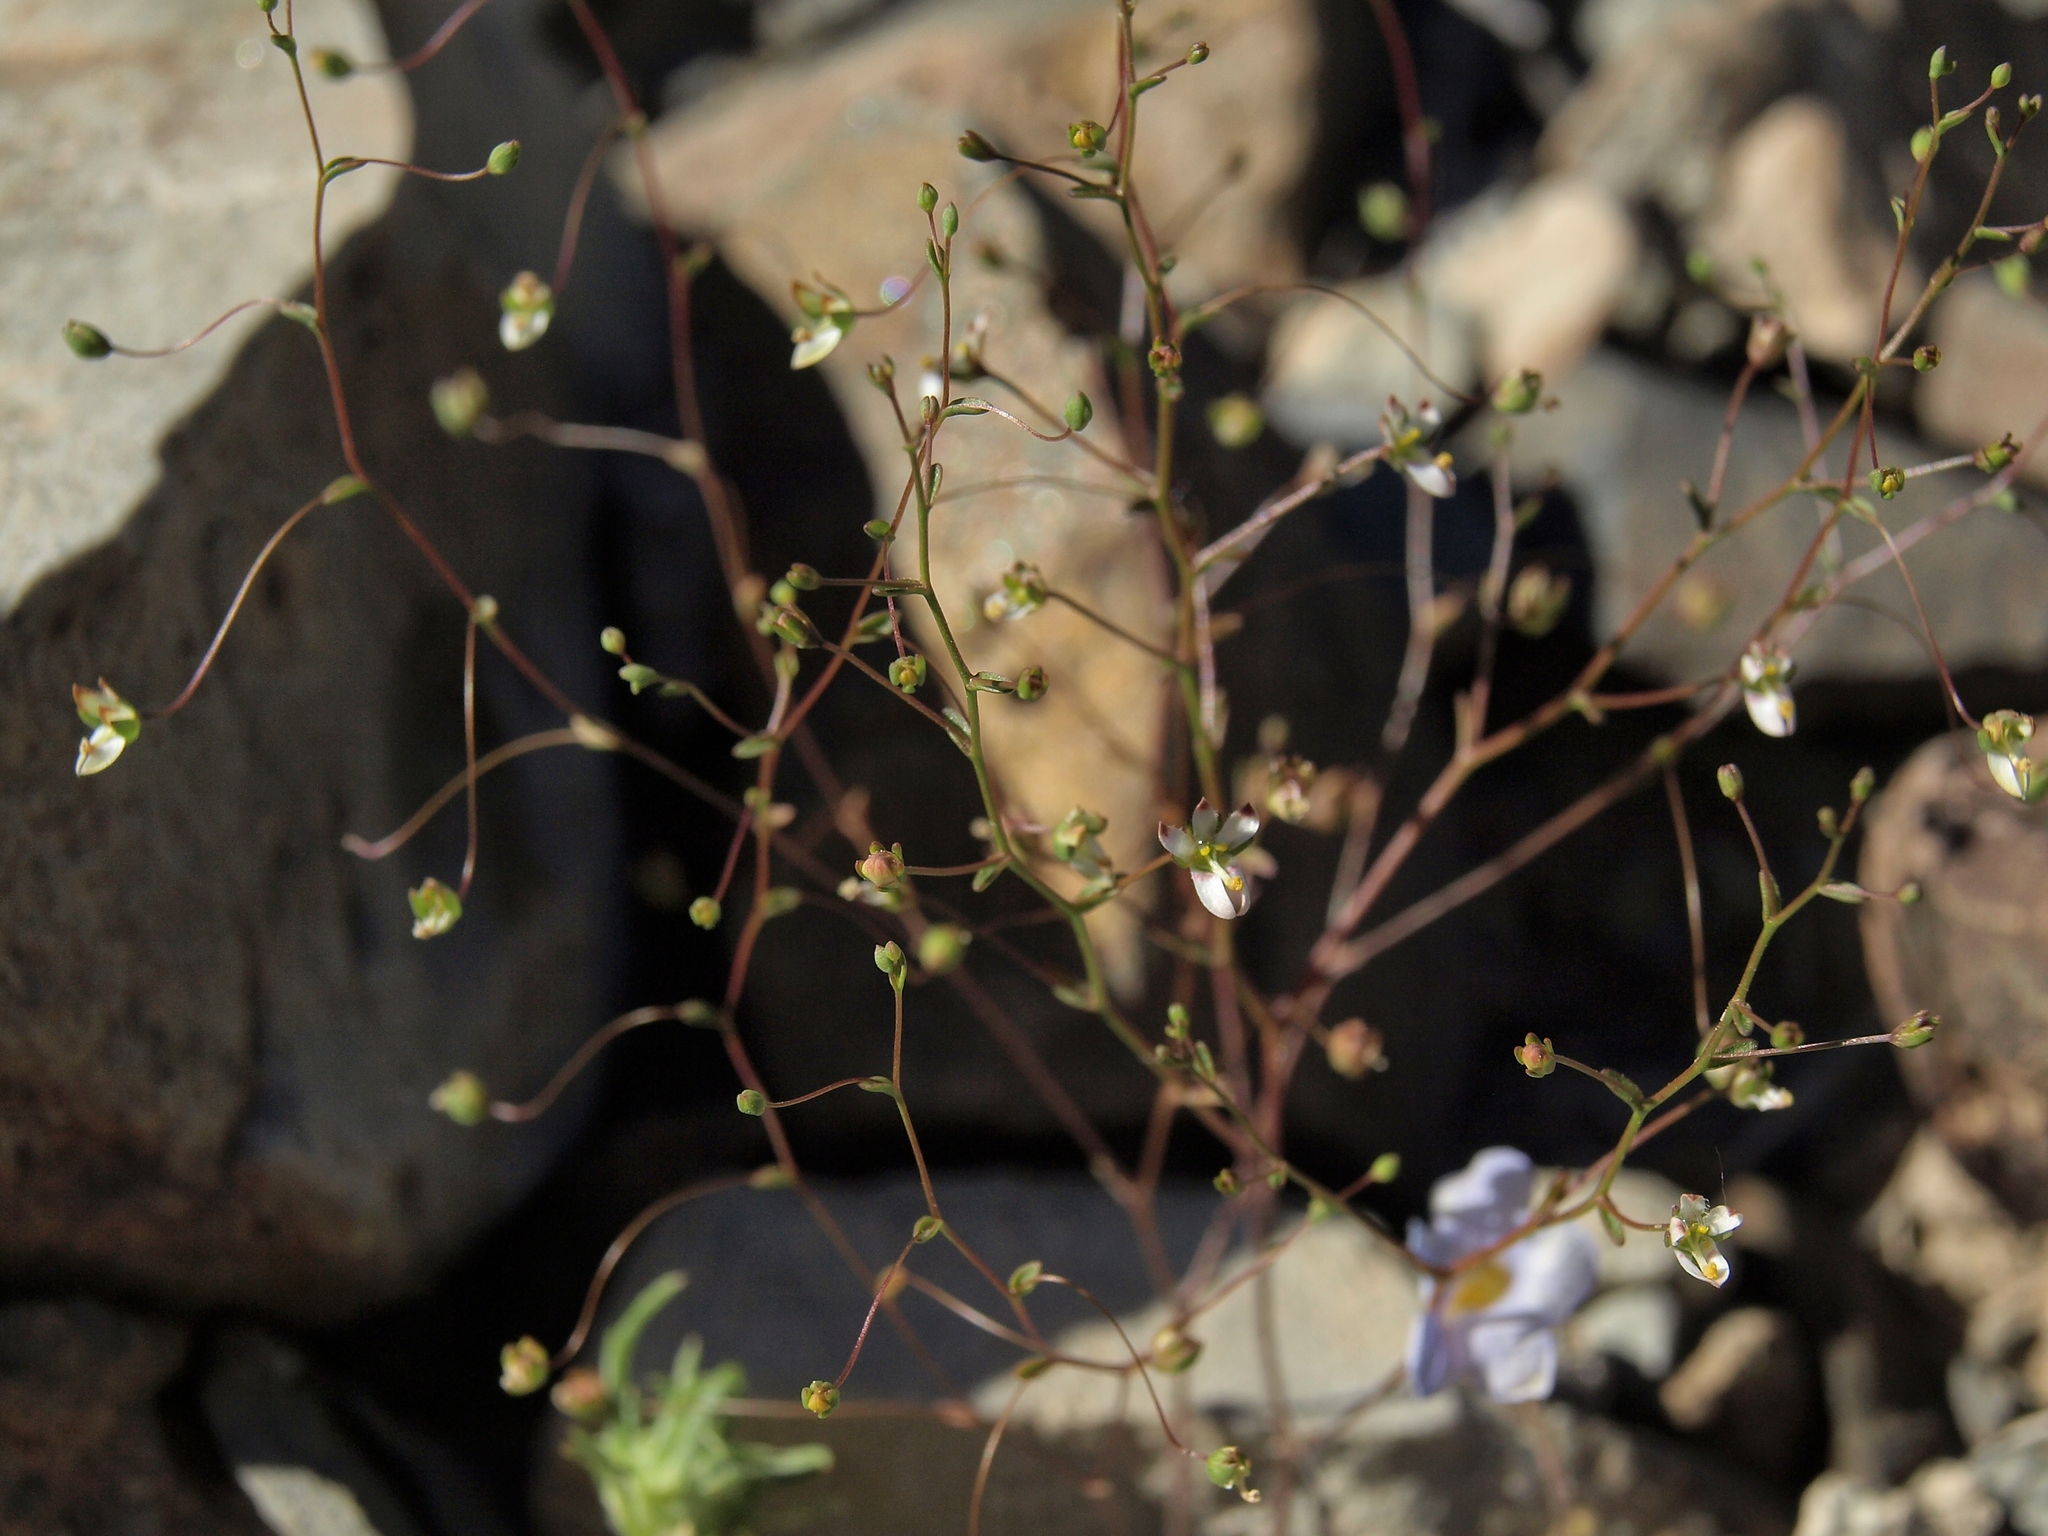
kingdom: Plantae
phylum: Tracheophyta
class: Magnoliopsida
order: Asterales
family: Campanulaceae
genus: Nemacladus
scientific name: Nemacladus orientalis
